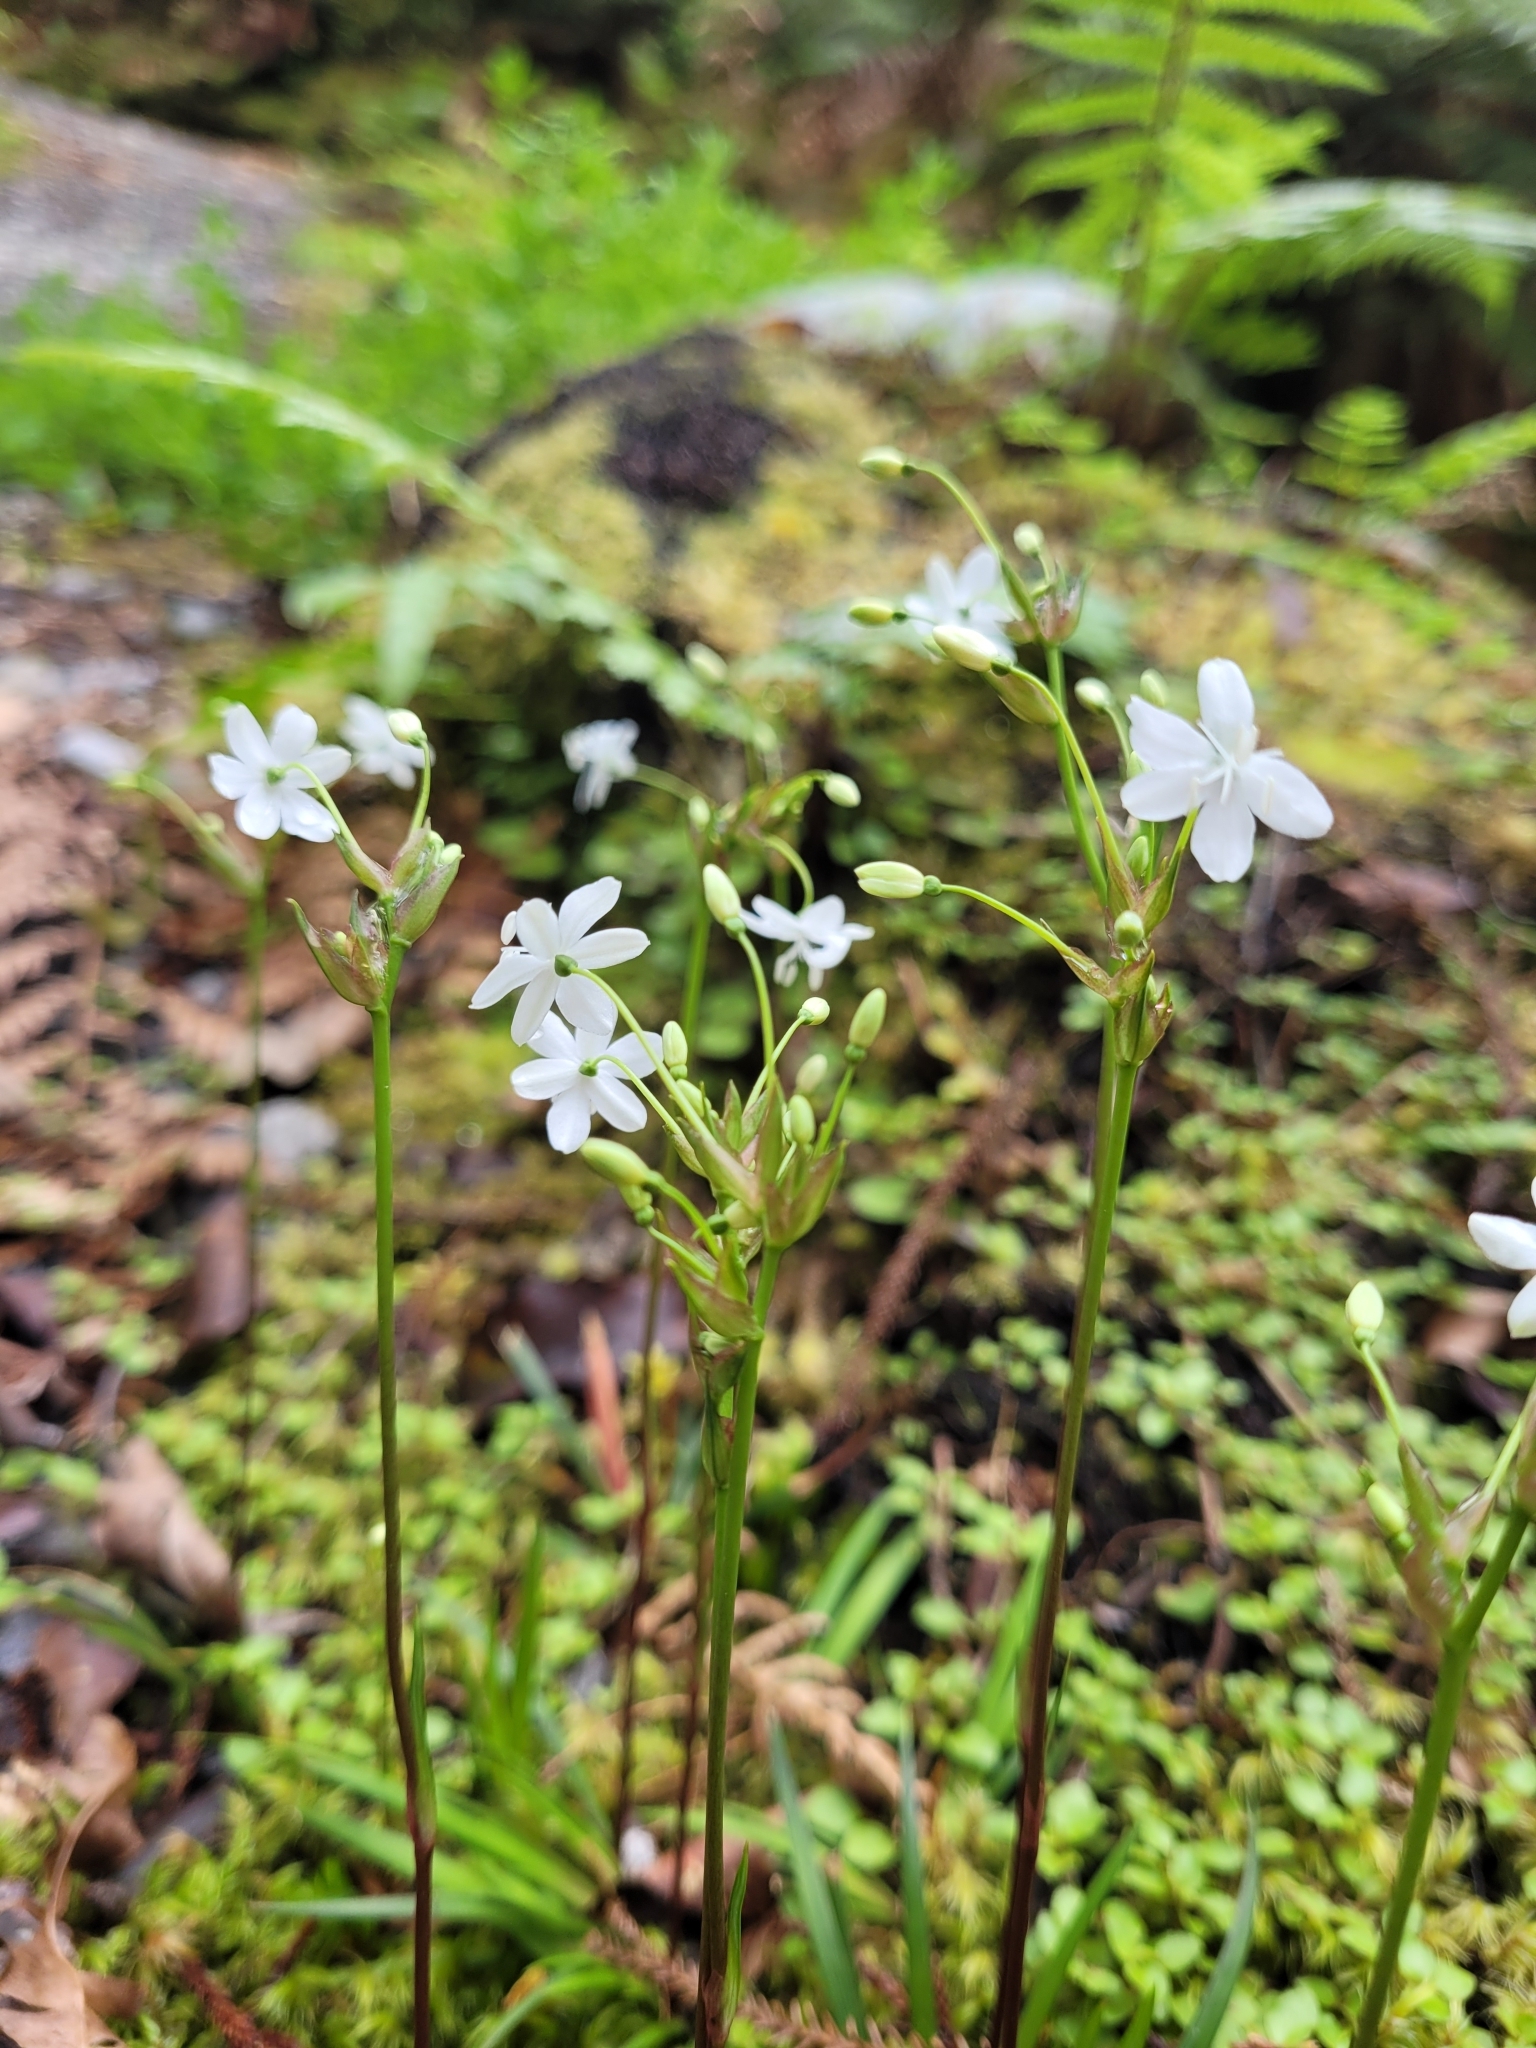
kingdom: Plantae
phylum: Tracheophyta
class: Liliopsida
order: Asparagales
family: Iridaceae
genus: Libertia
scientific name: Libertia micrantha
